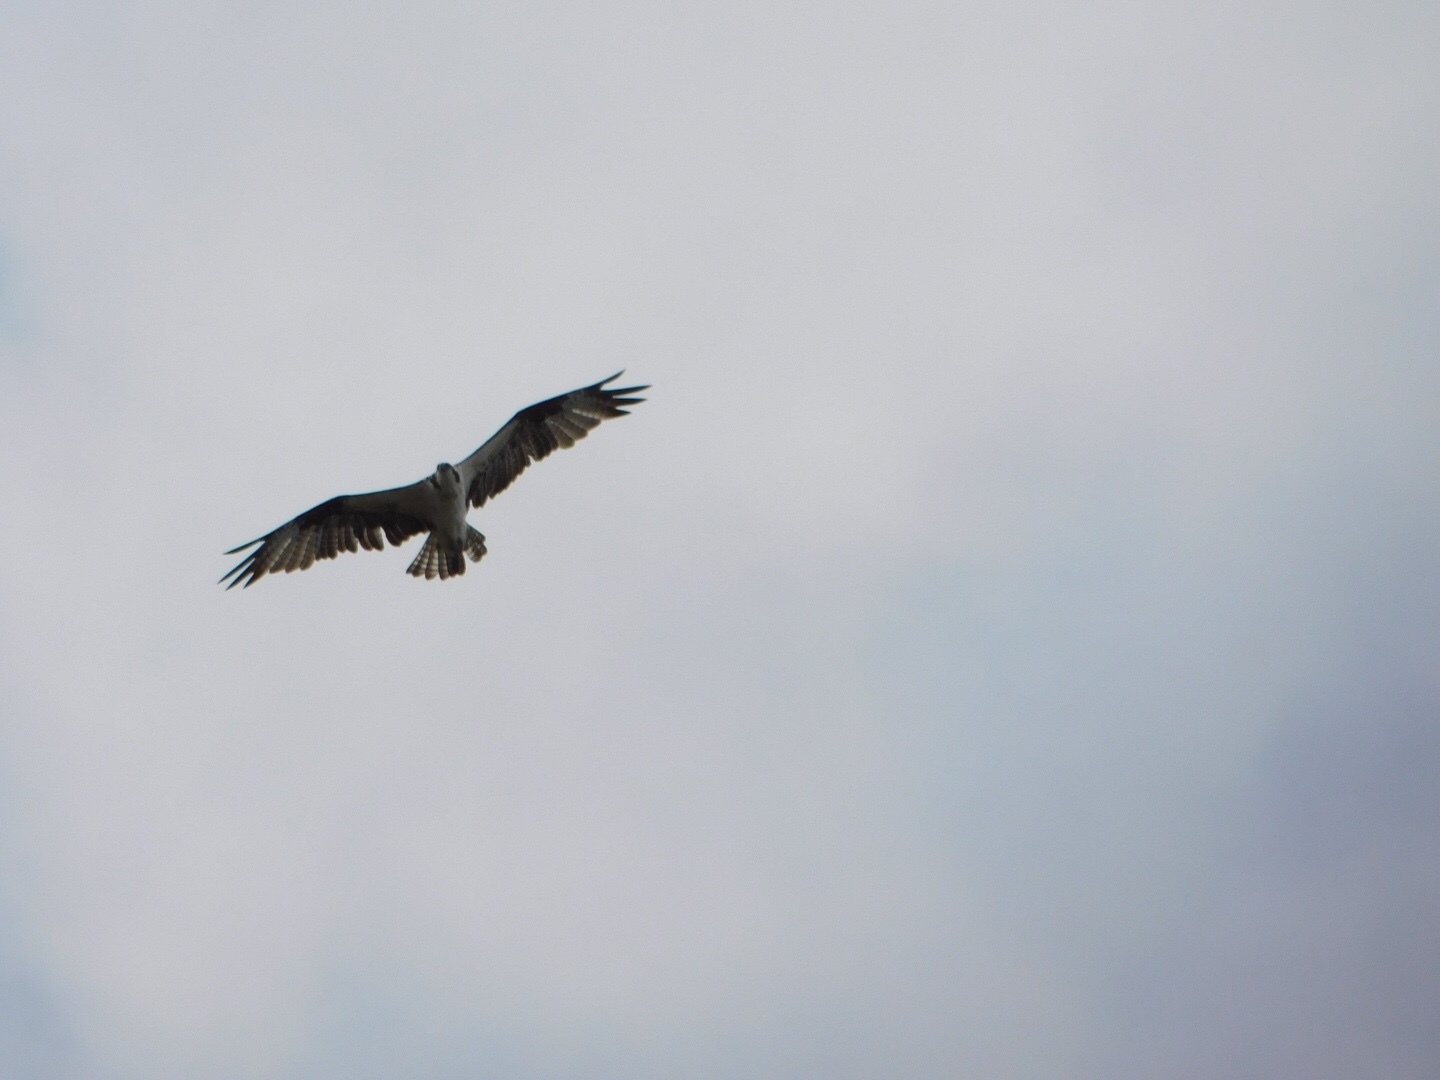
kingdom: Animalia
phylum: Chordata
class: Aves
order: Accipitriformes
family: Pandionidae
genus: Pandion
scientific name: Pandion haliaetus
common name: Osprey
